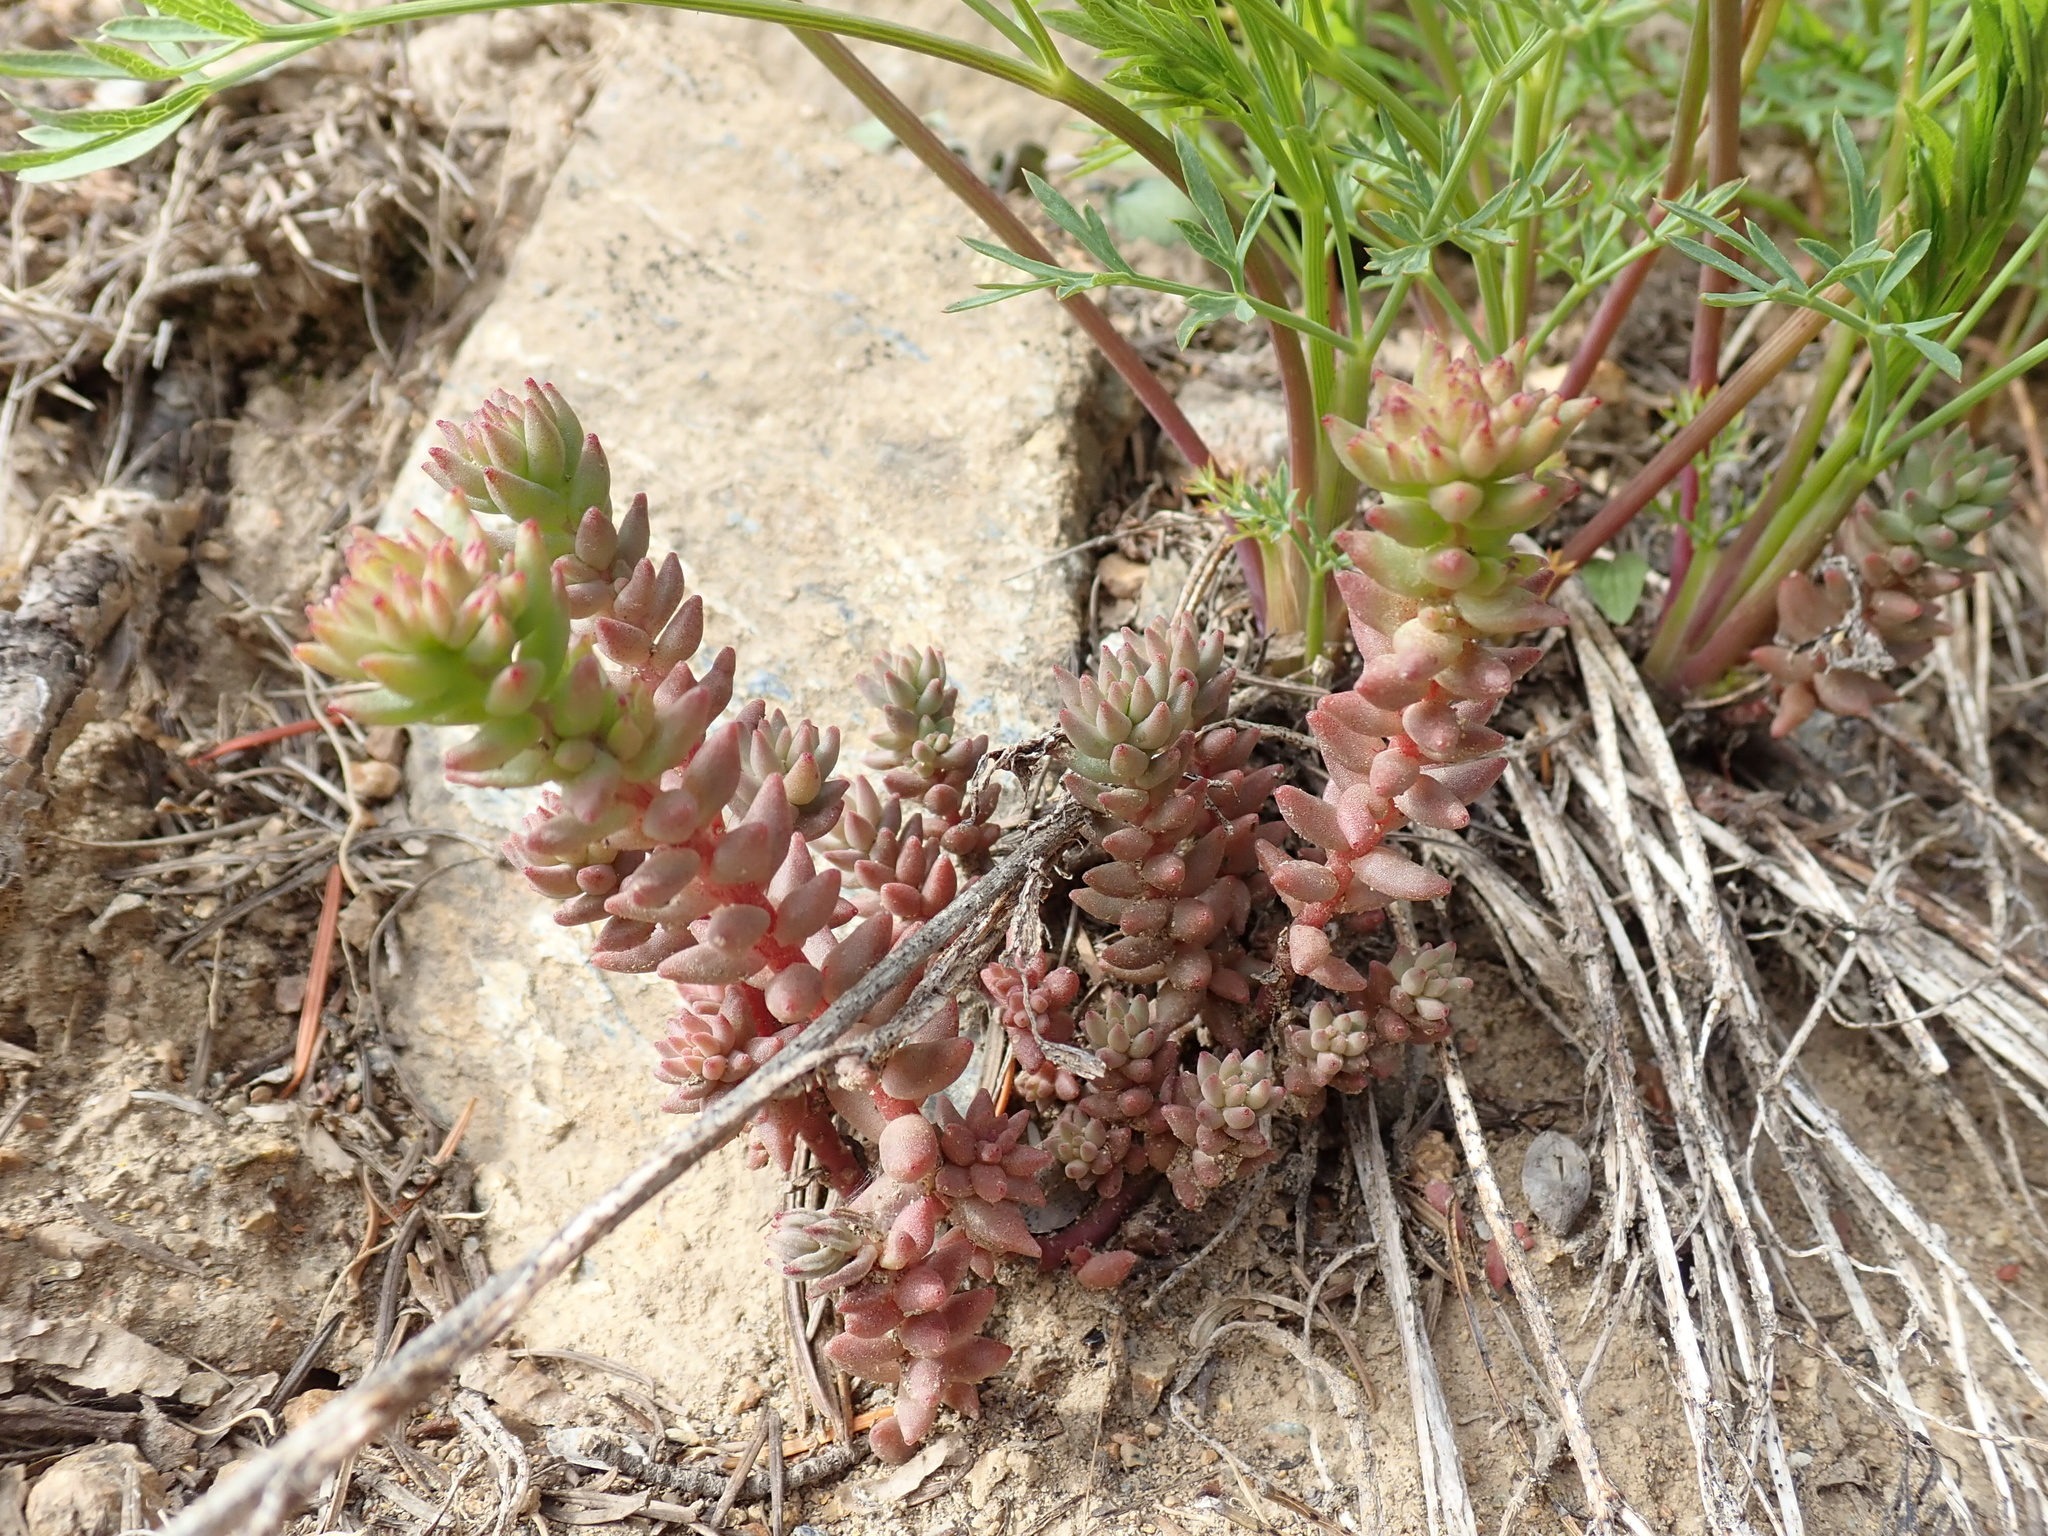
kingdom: Plantae
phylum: Tracheophyta
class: Magnoliopsida
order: Saxifragales
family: Crassulaceae
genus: Sedum
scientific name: Sedum rupicola
